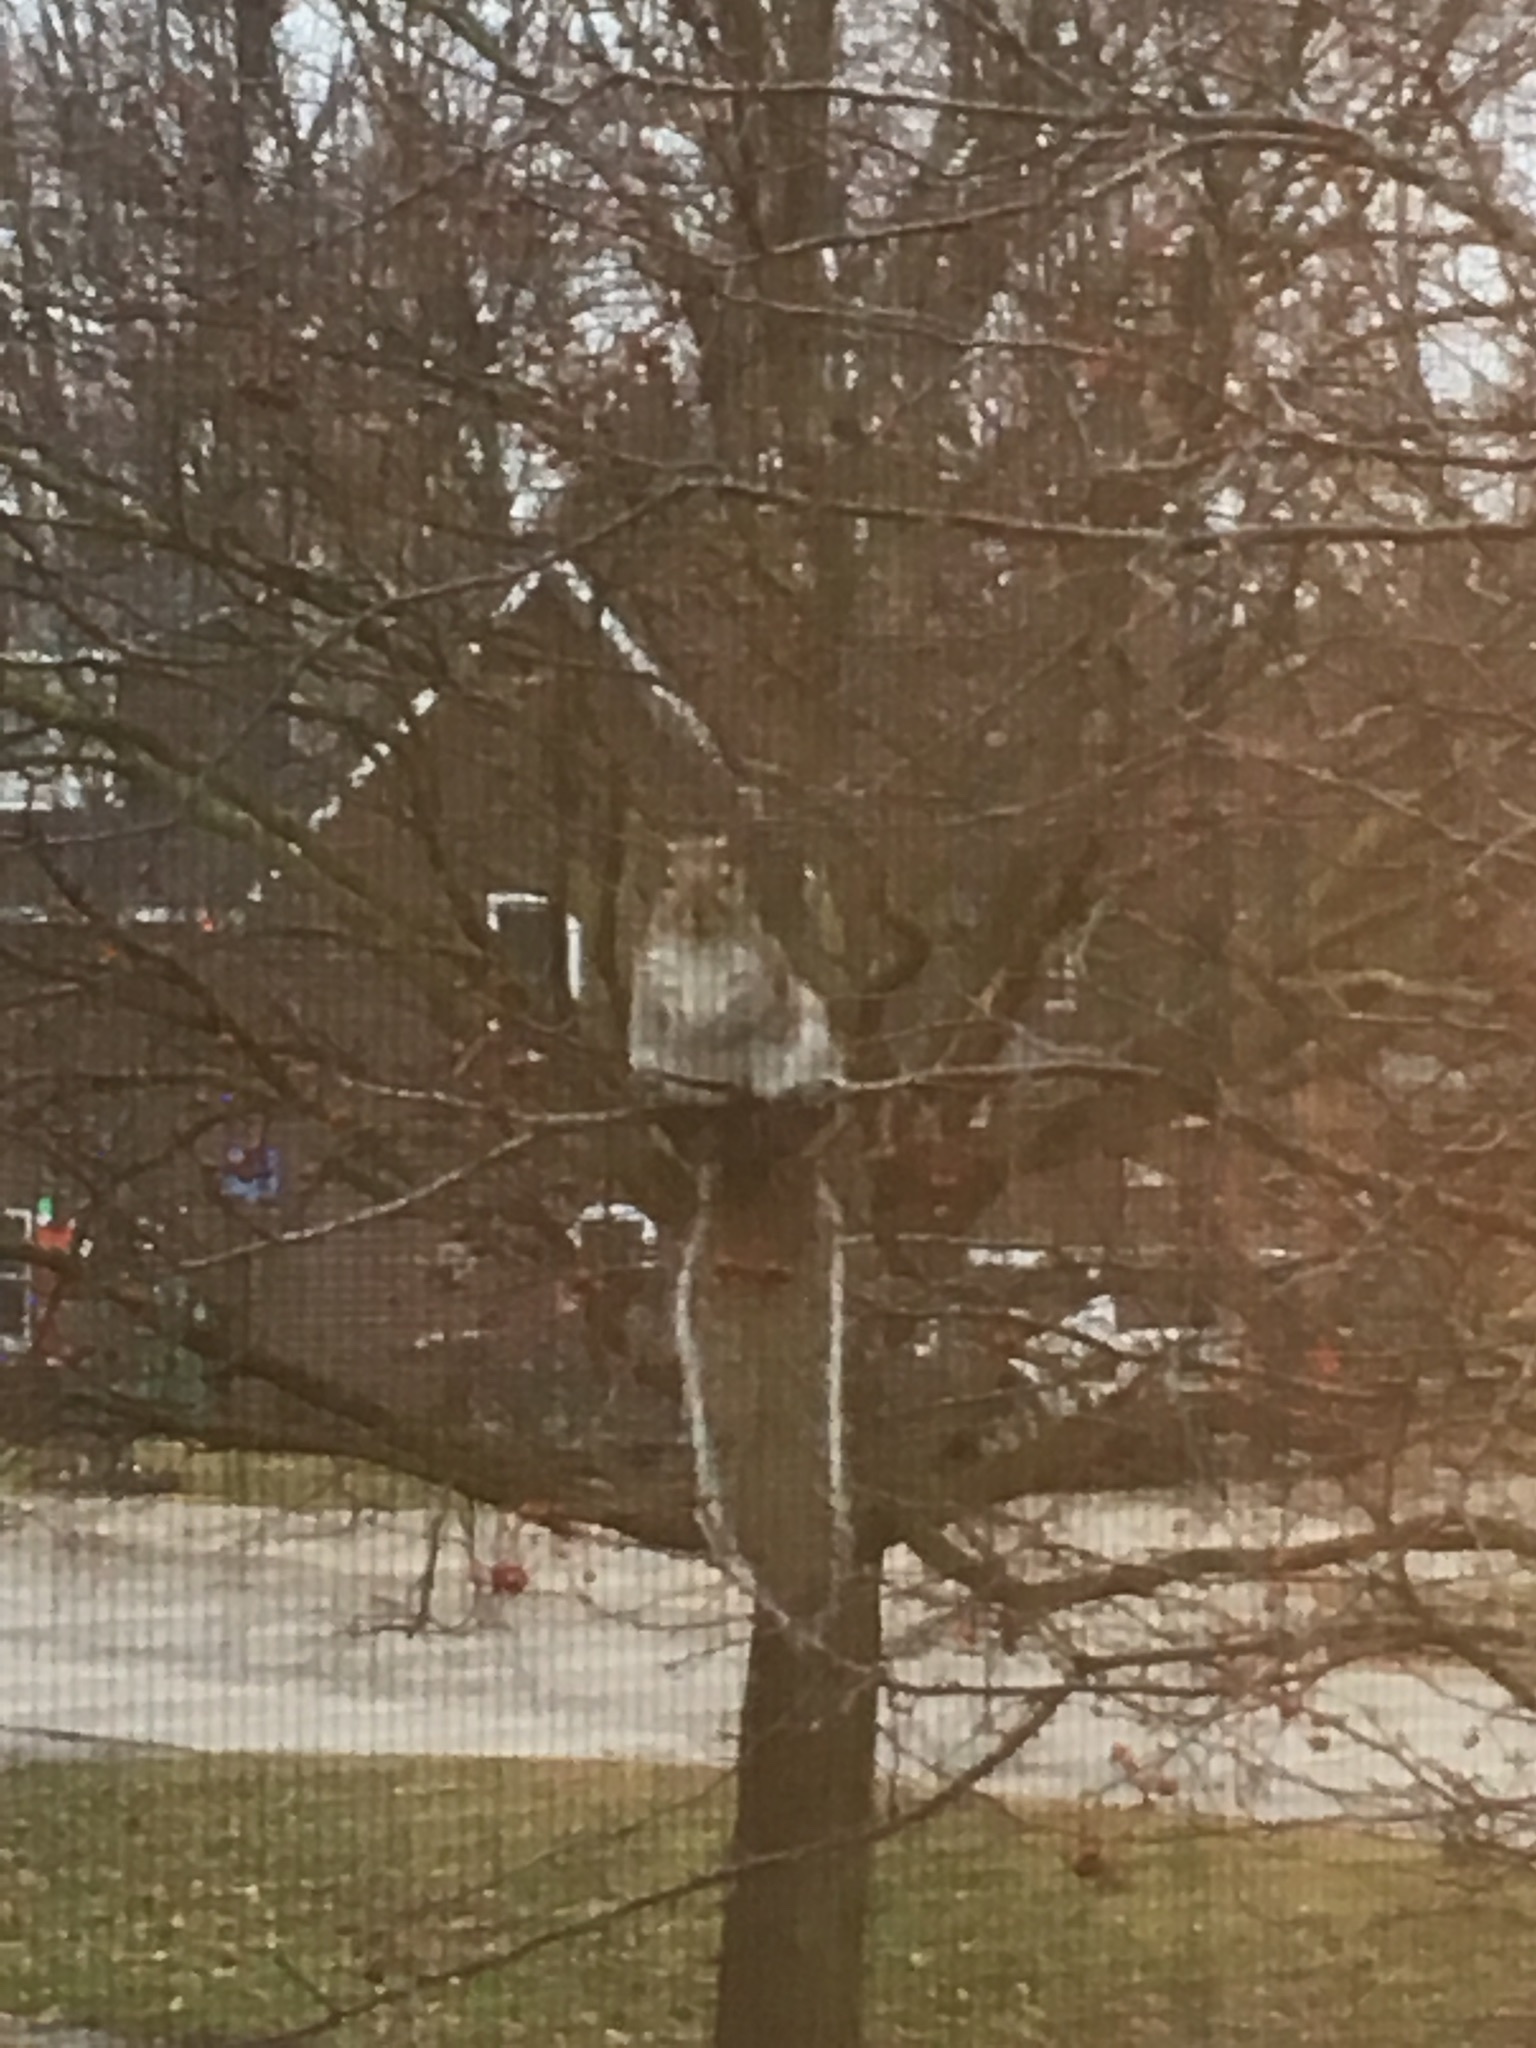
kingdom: Animalia
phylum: Chordata
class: Mammalia
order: Rodentia
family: Sciuridae
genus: Sciurus
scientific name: Sciurus carolinensis
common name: Eastern gray squirrel
